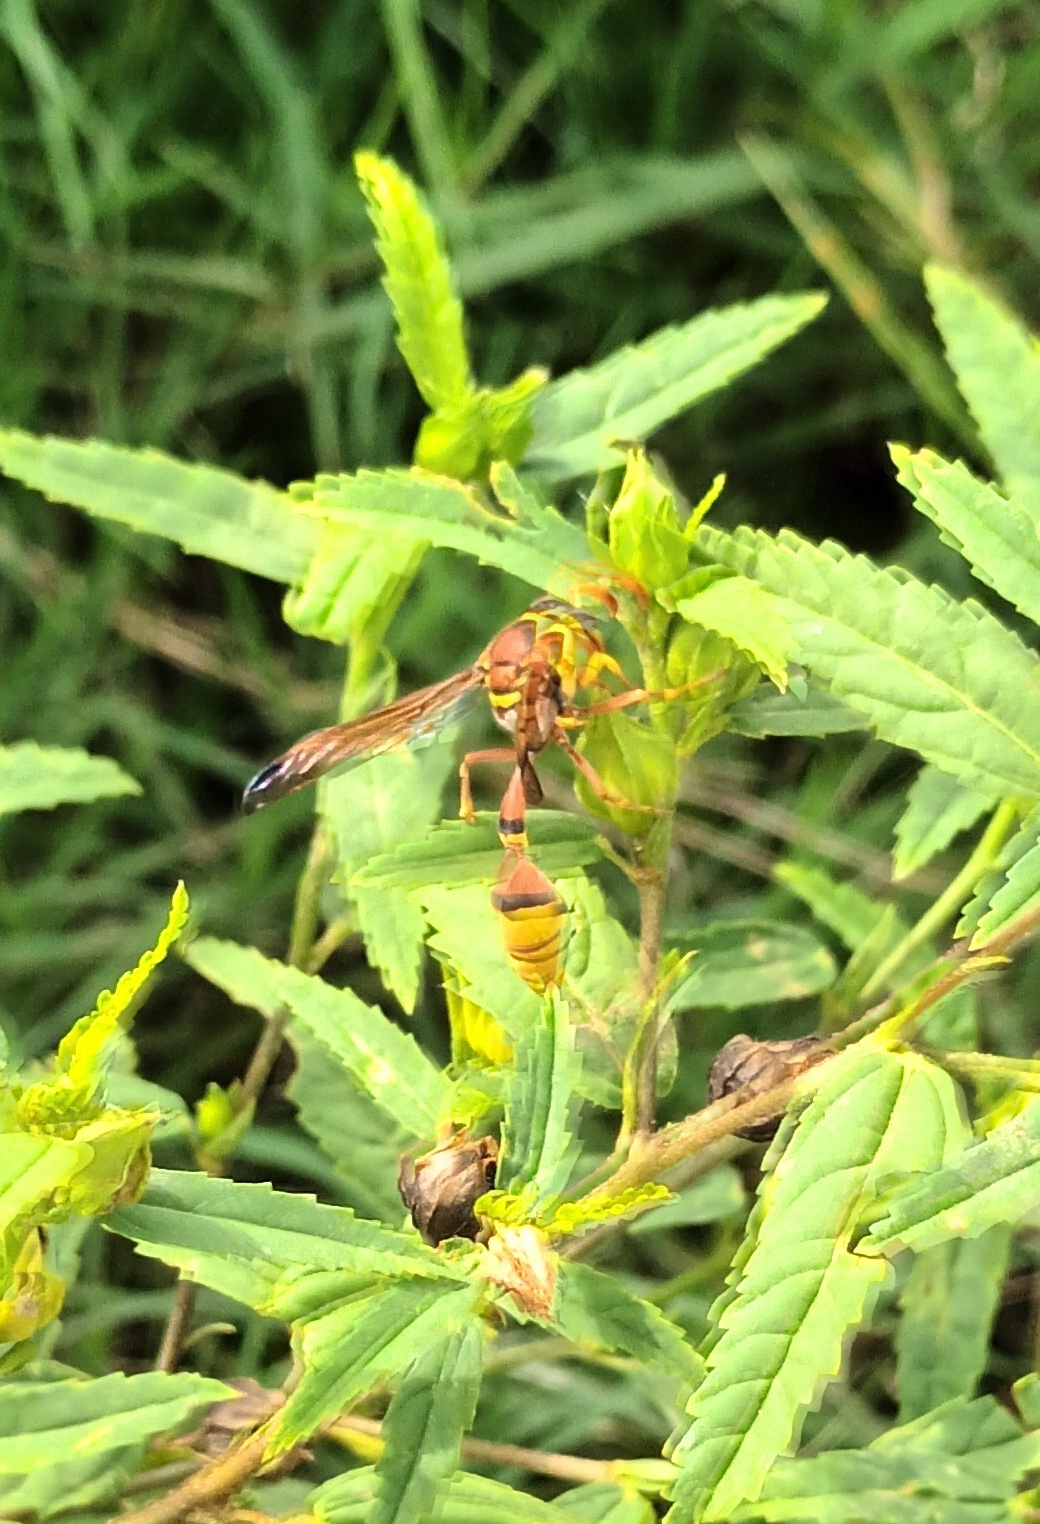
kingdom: Animalia
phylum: Arthropoda
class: Insecta
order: Hymenoptera
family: Eumenidae
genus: Delta
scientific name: Delta esuriens
